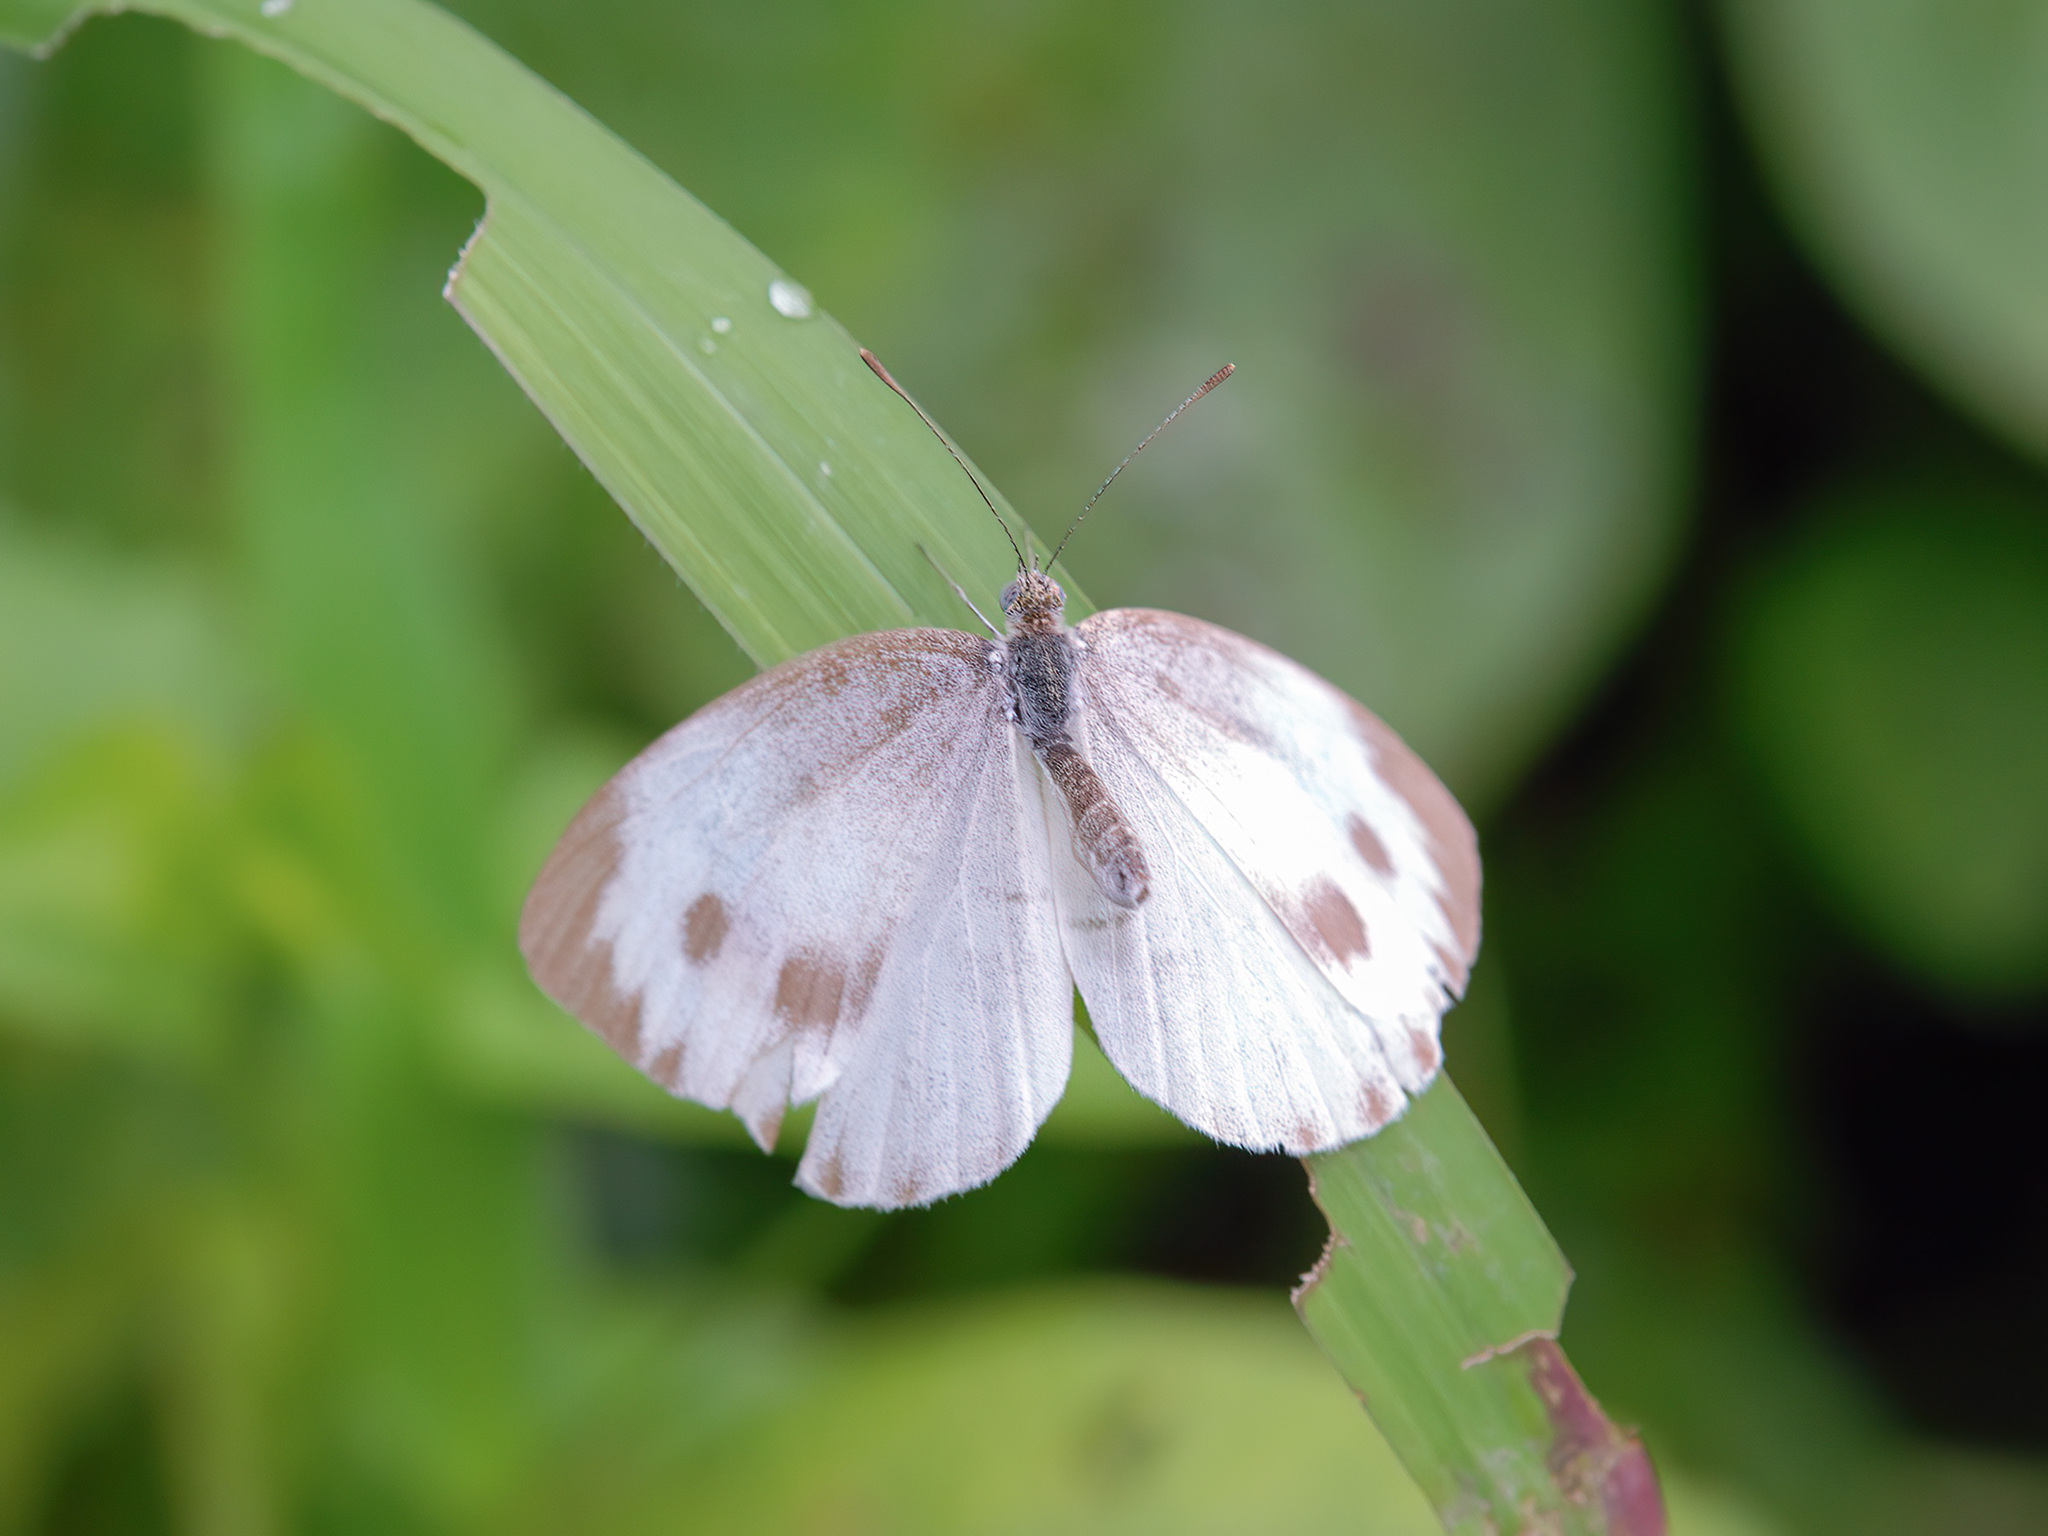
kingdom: Animalia
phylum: Arthropoda
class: Insecta
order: Lepidoptera
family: Pieridae
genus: Pieris
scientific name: Pieris canidia
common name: Indian cabbage white
